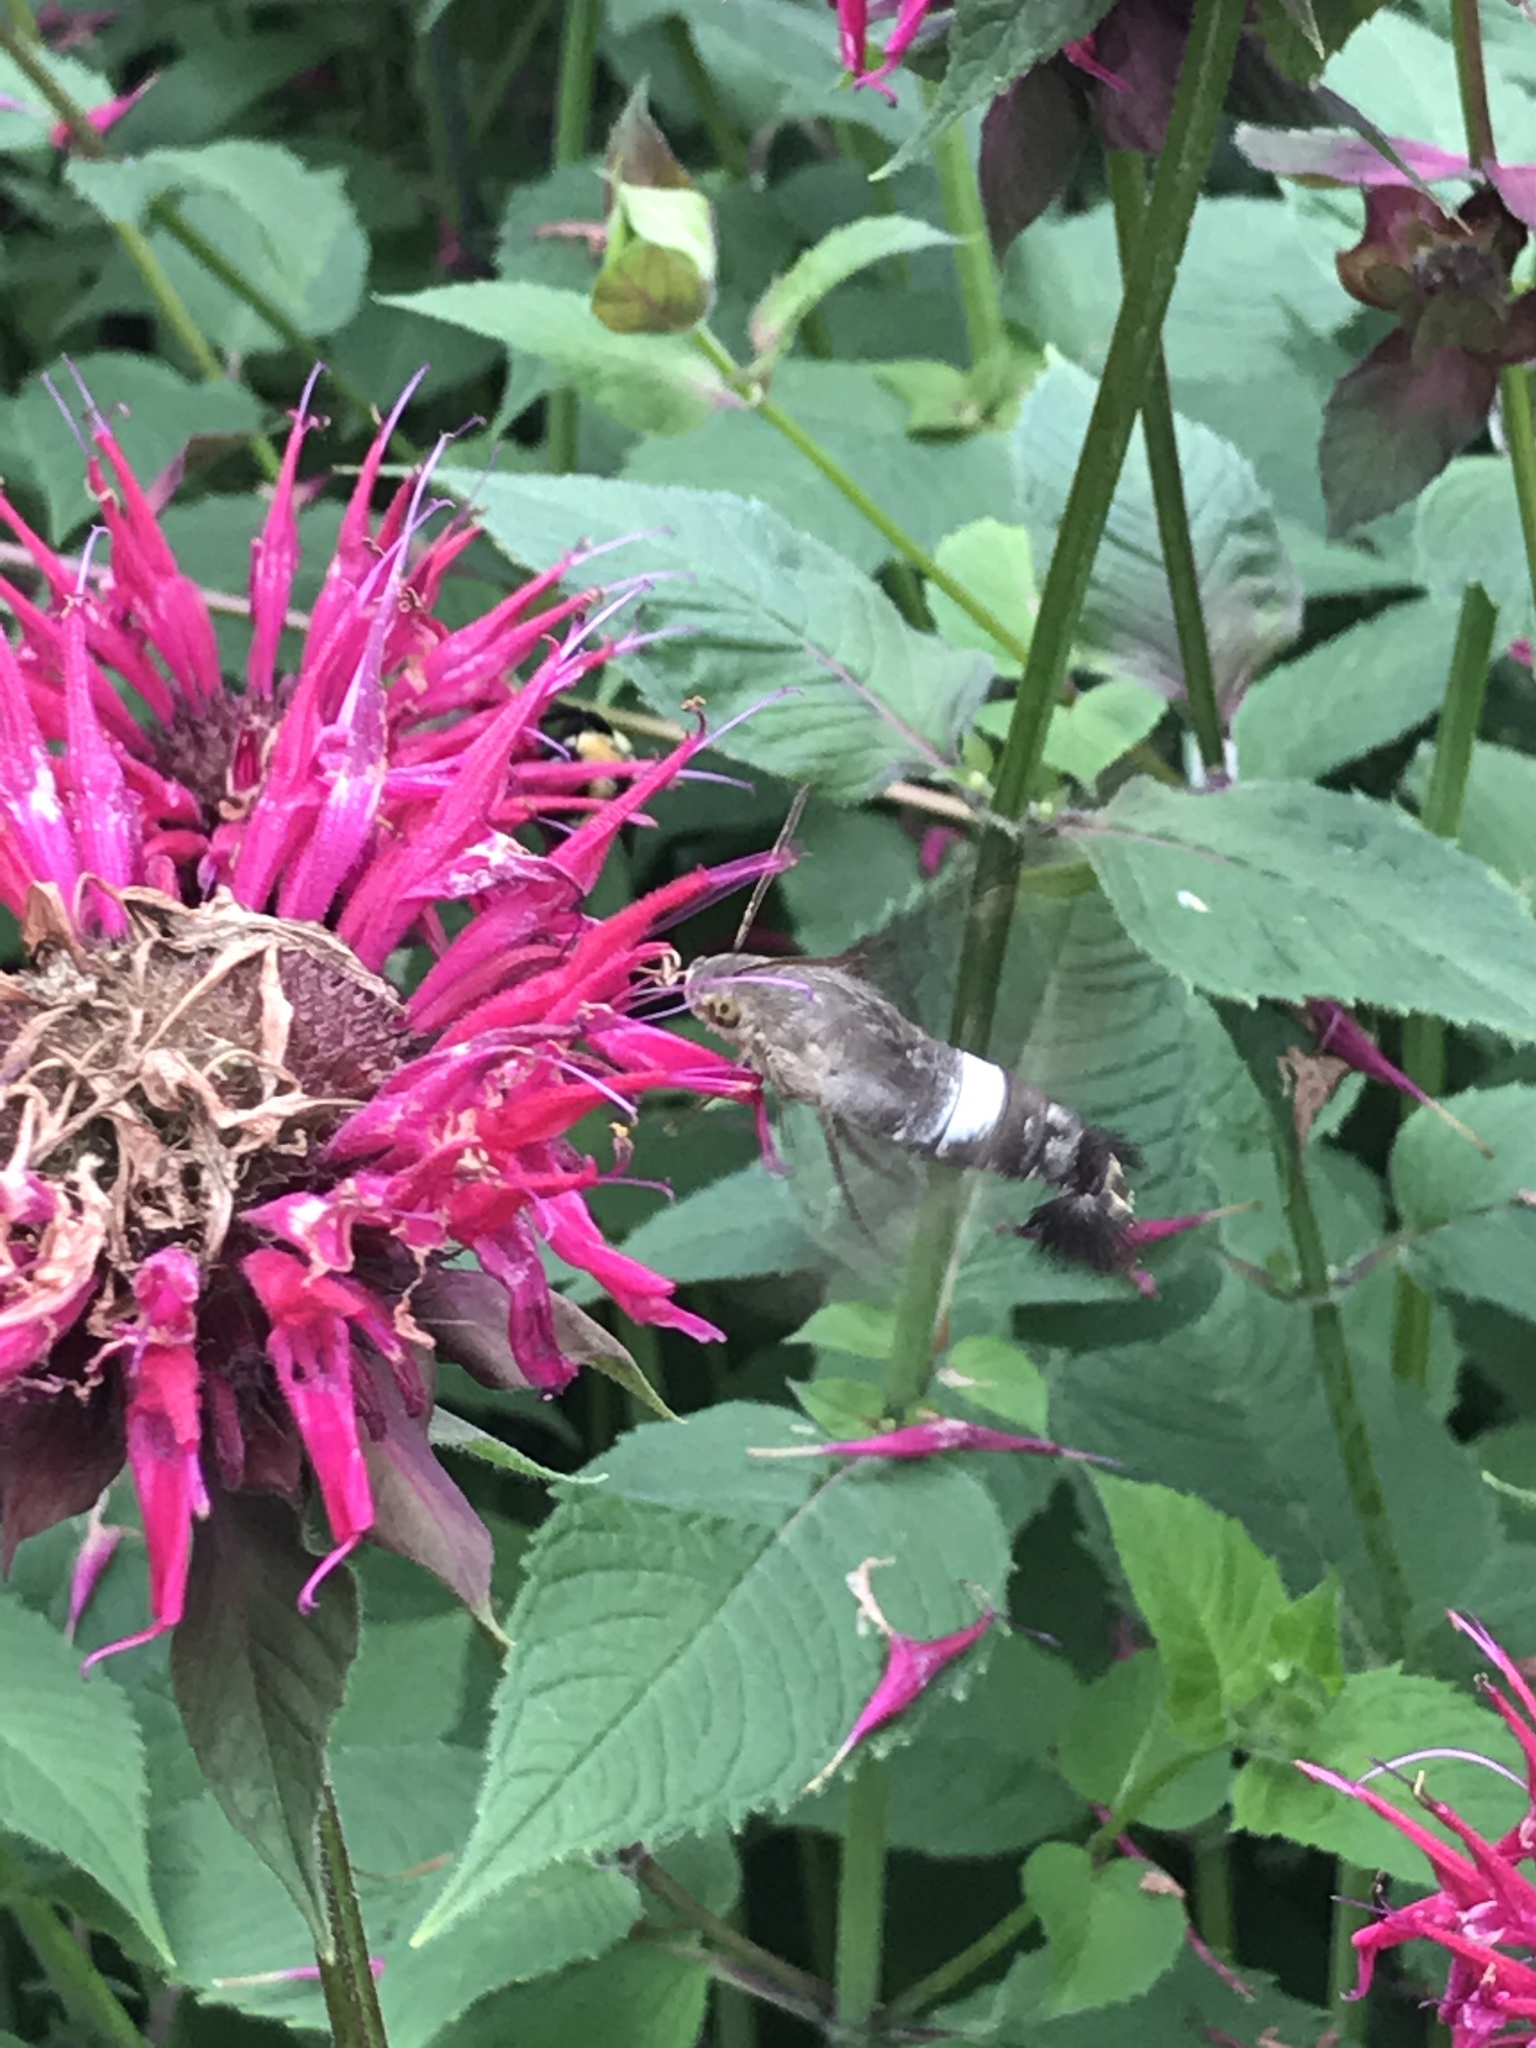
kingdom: Animalia
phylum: Arthropoda
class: Insecta
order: Lepidoptera
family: Sphingidae
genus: Aellopos
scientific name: Aellopos titan
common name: Titan sphinx
